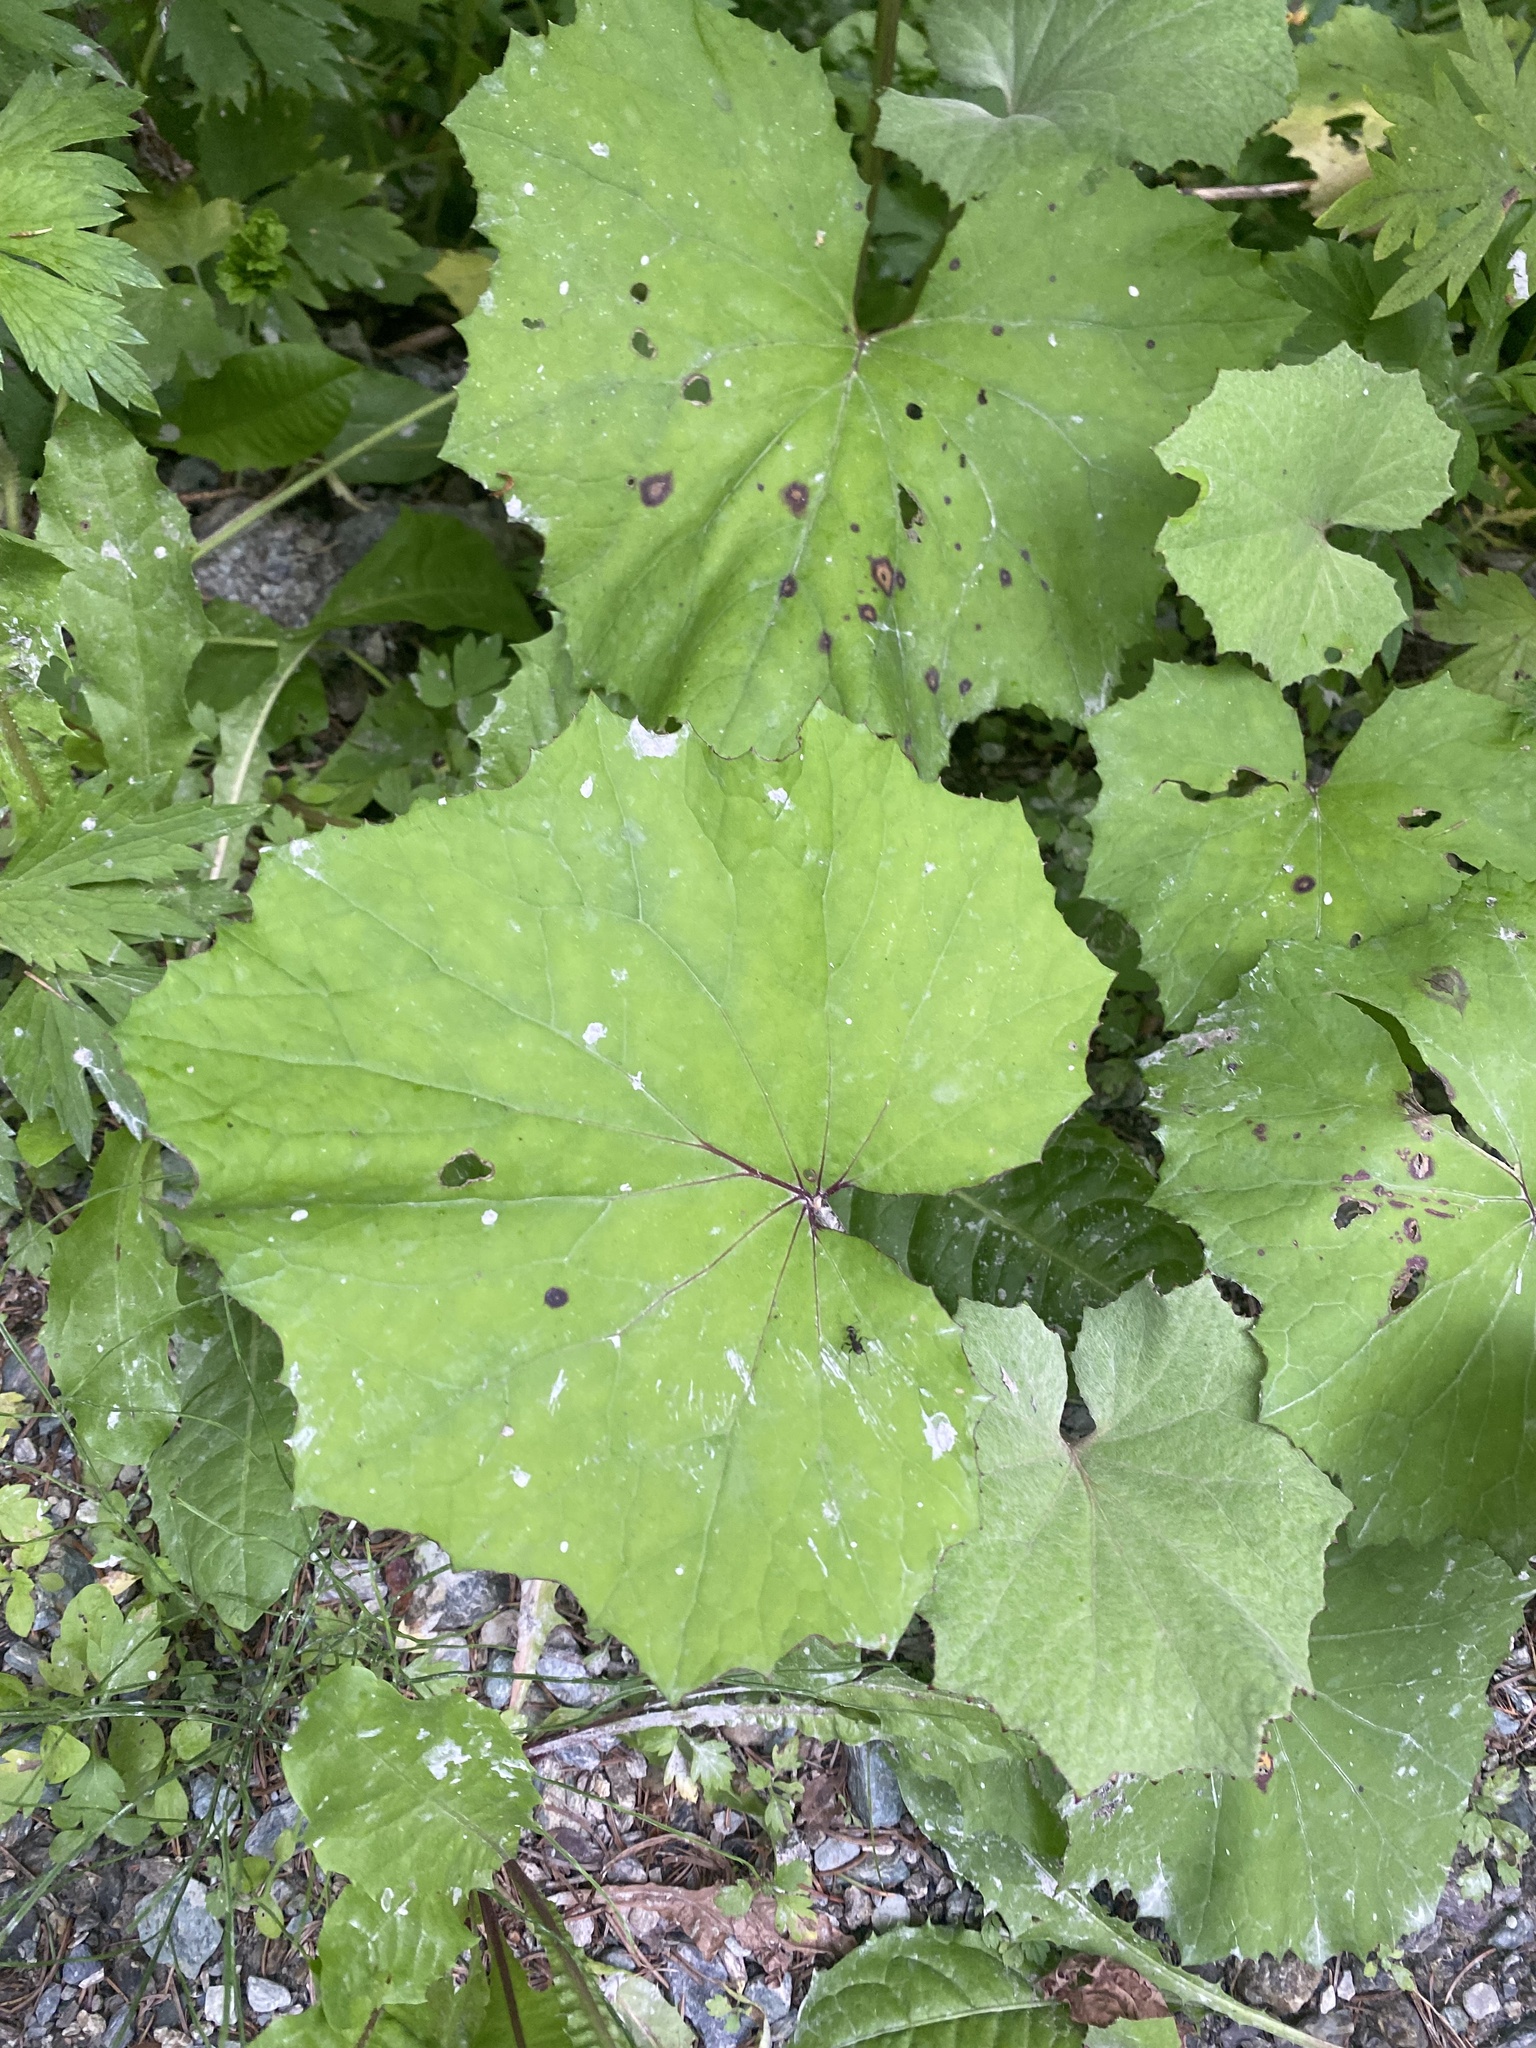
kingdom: Plantae
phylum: Tracheophyta
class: Magnoliopsida
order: Asterales
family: Asteraceae
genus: Tussilago
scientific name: Tussilago farfara
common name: Coltsfoot
